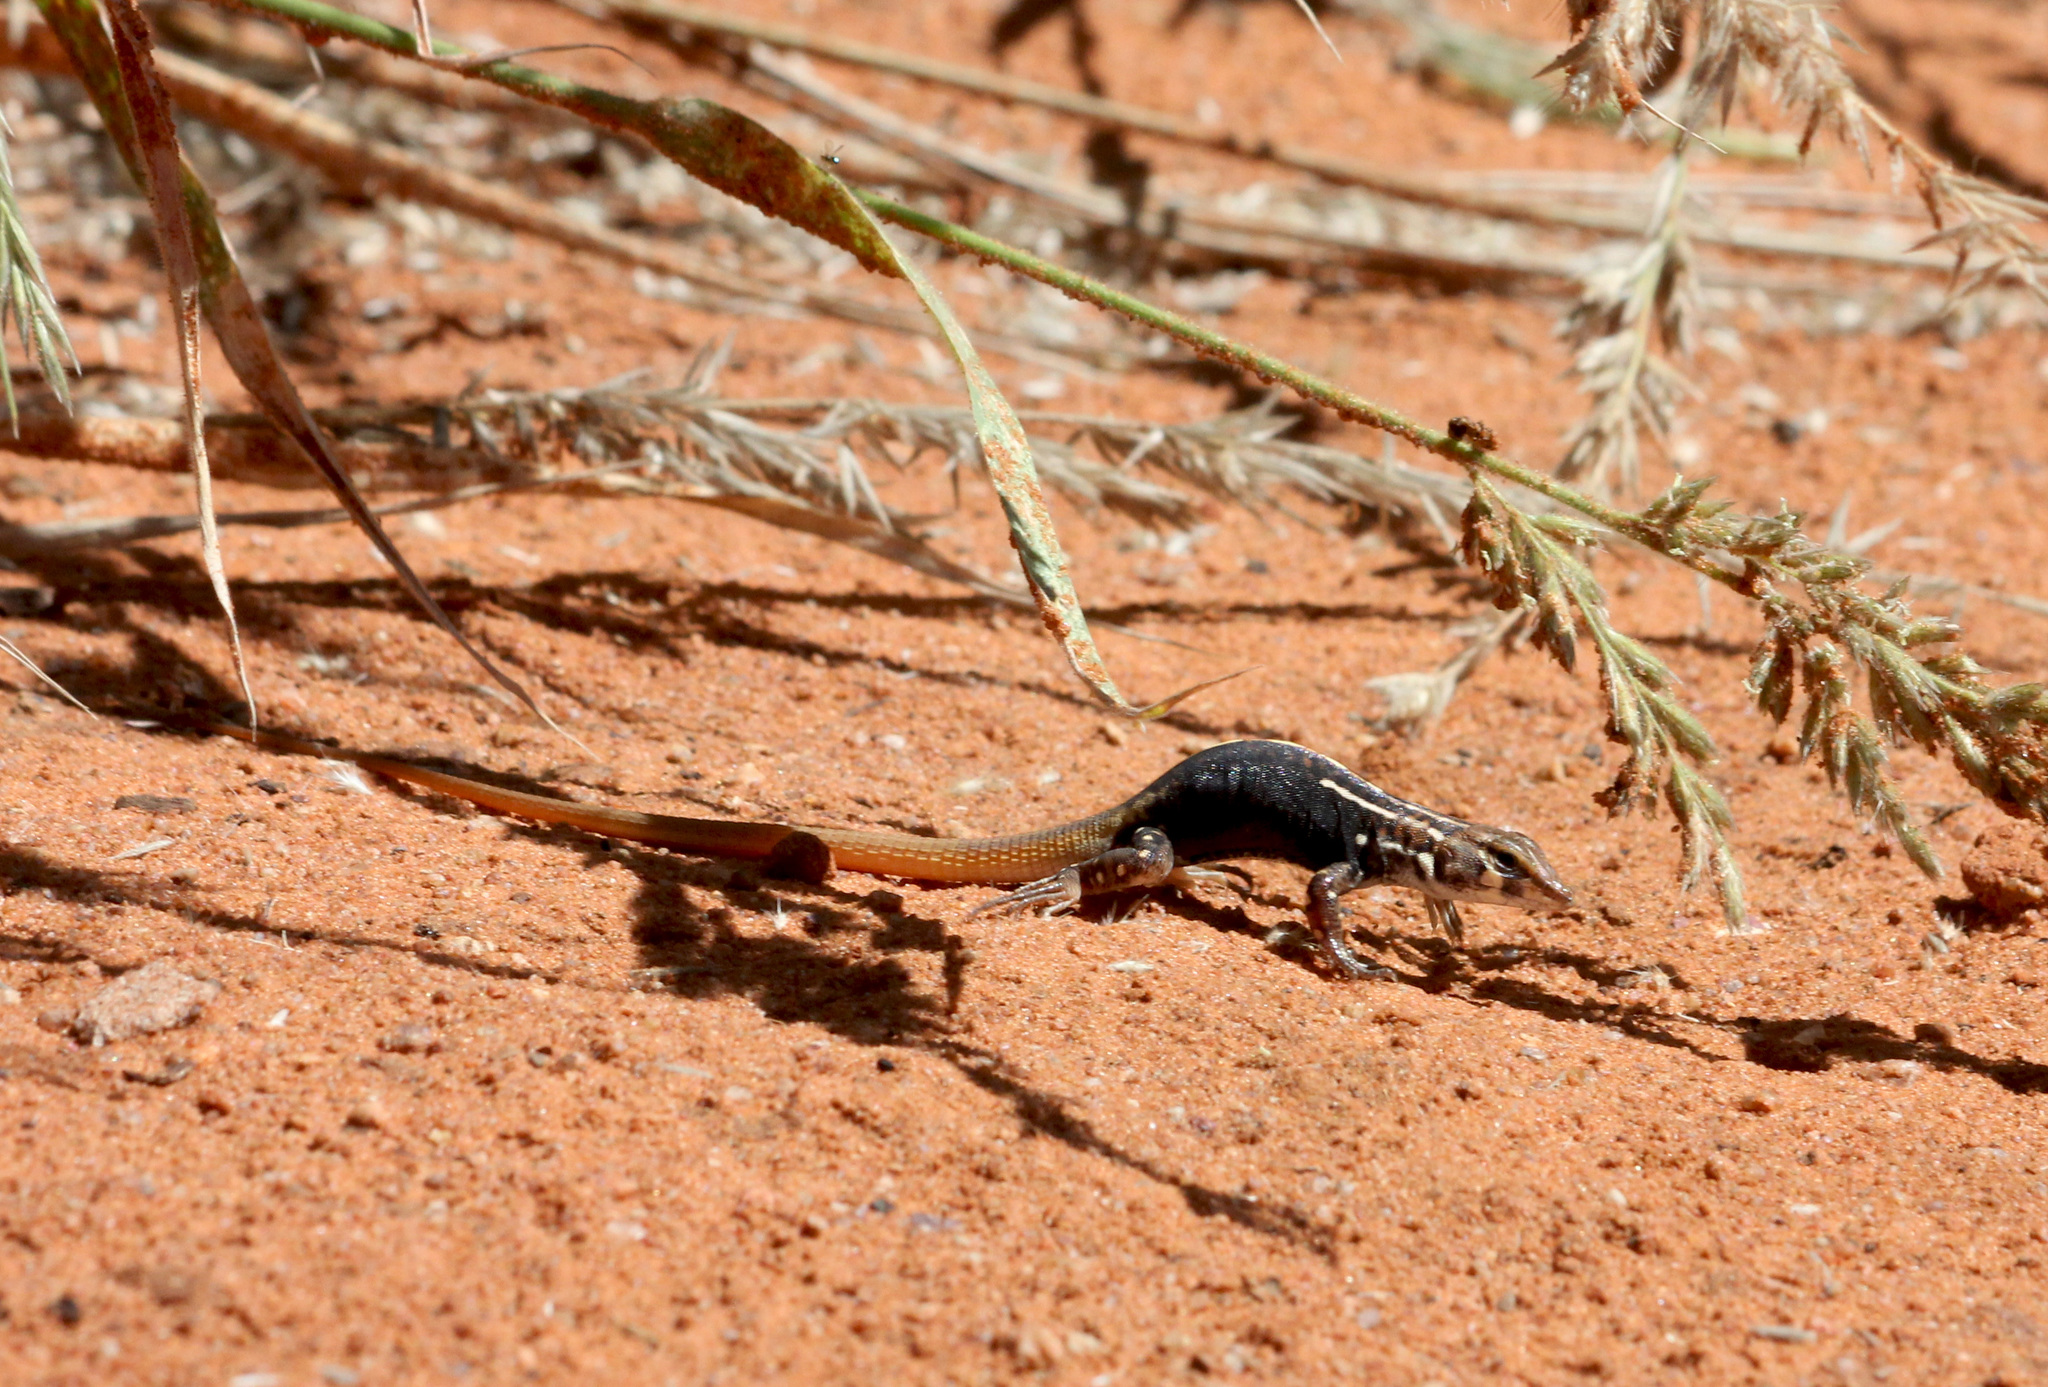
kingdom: Animalia
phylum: Chordata
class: Squamata
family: Lacertidae
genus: Heliobolus
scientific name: Heliobolus lugubris
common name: Bushveld lizard
